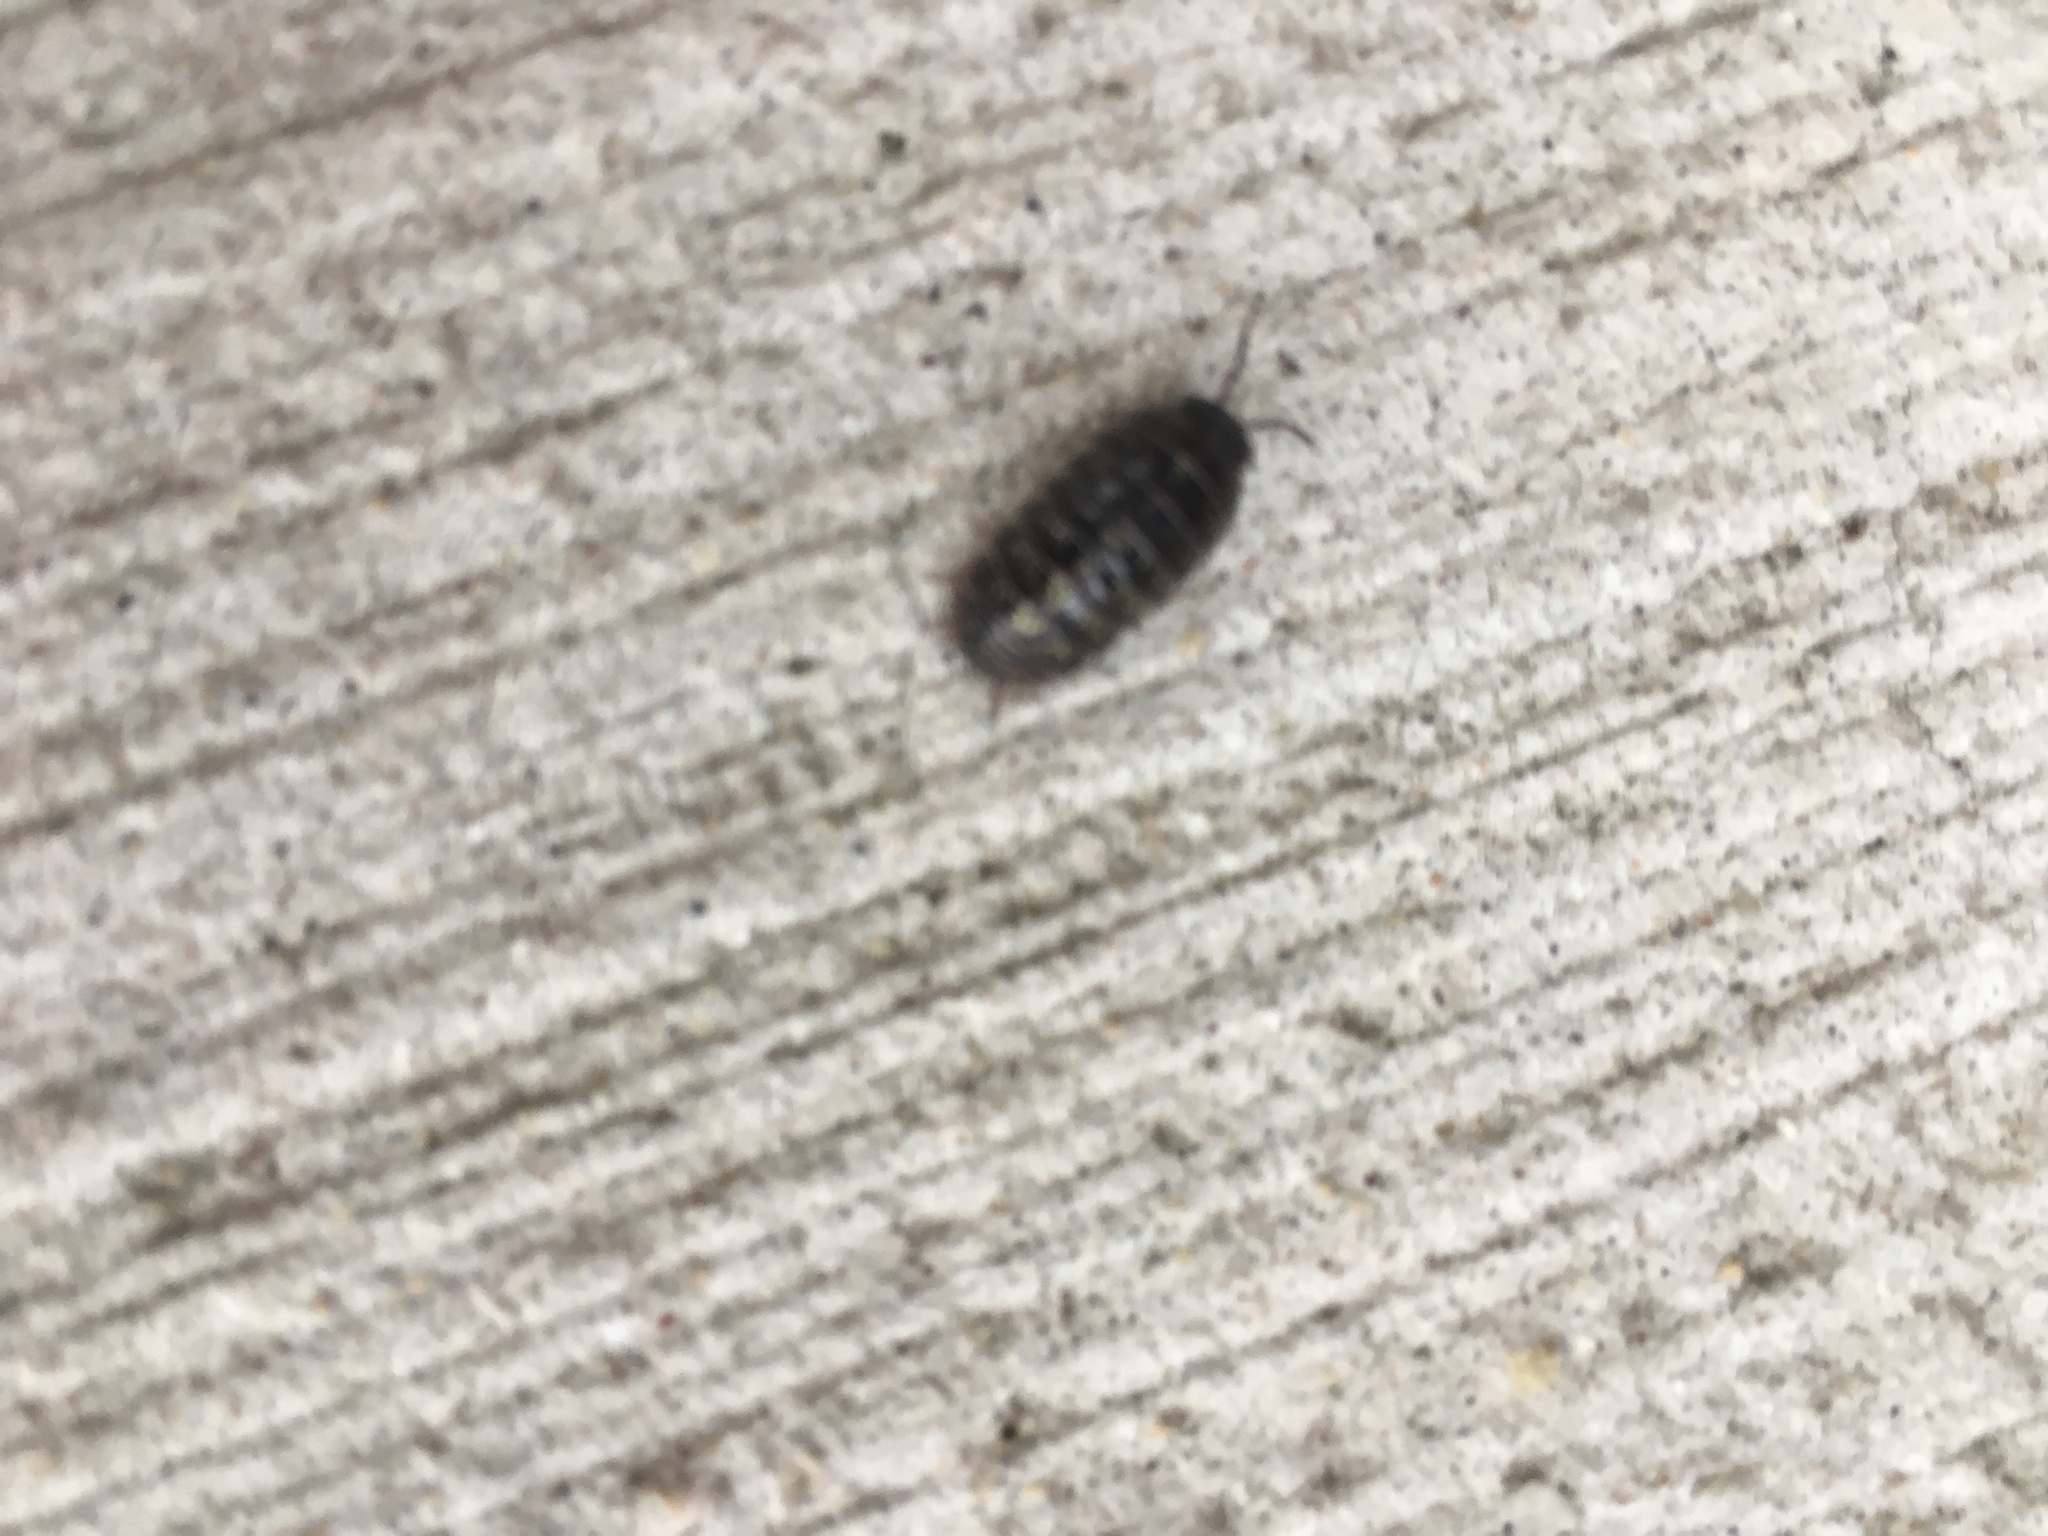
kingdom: Animalia
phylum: Arthropoda
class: Malacostraca
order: Isopoda
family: Armadillidiidae
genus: Armadillidium
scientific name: Armadillidium vulgare
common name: Common pill woodlouse
